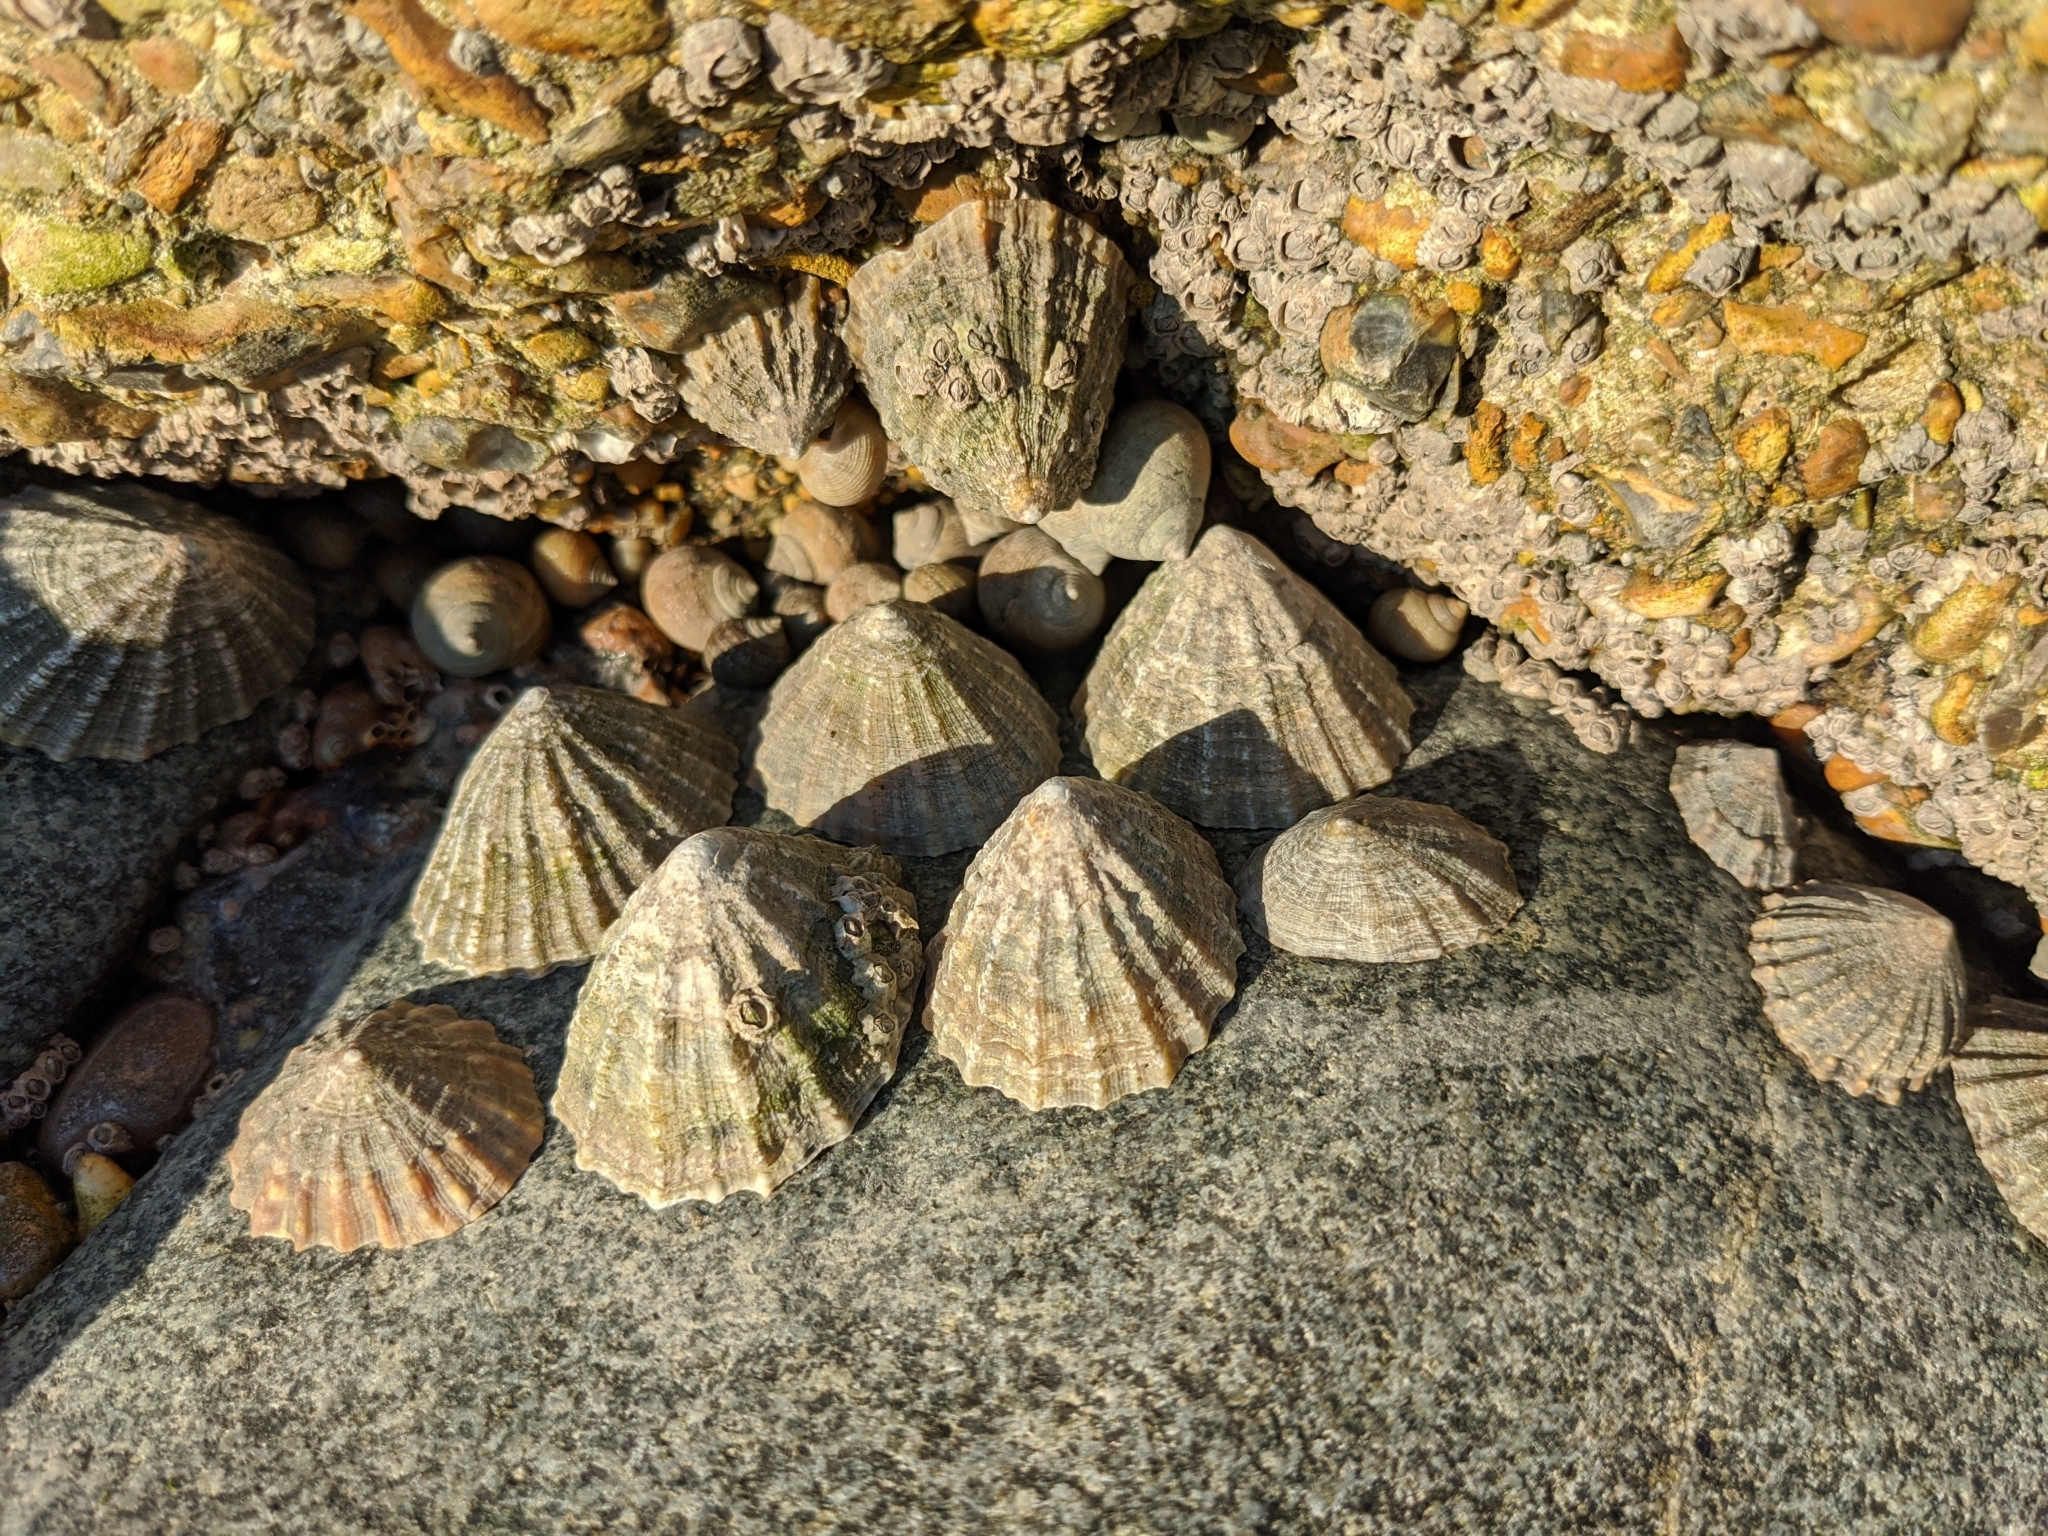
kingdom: Animalia
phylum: Mollusca
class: Gastropoda
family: Patellidae
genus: Patella
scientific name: Patella vulgata
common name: Common limpet
